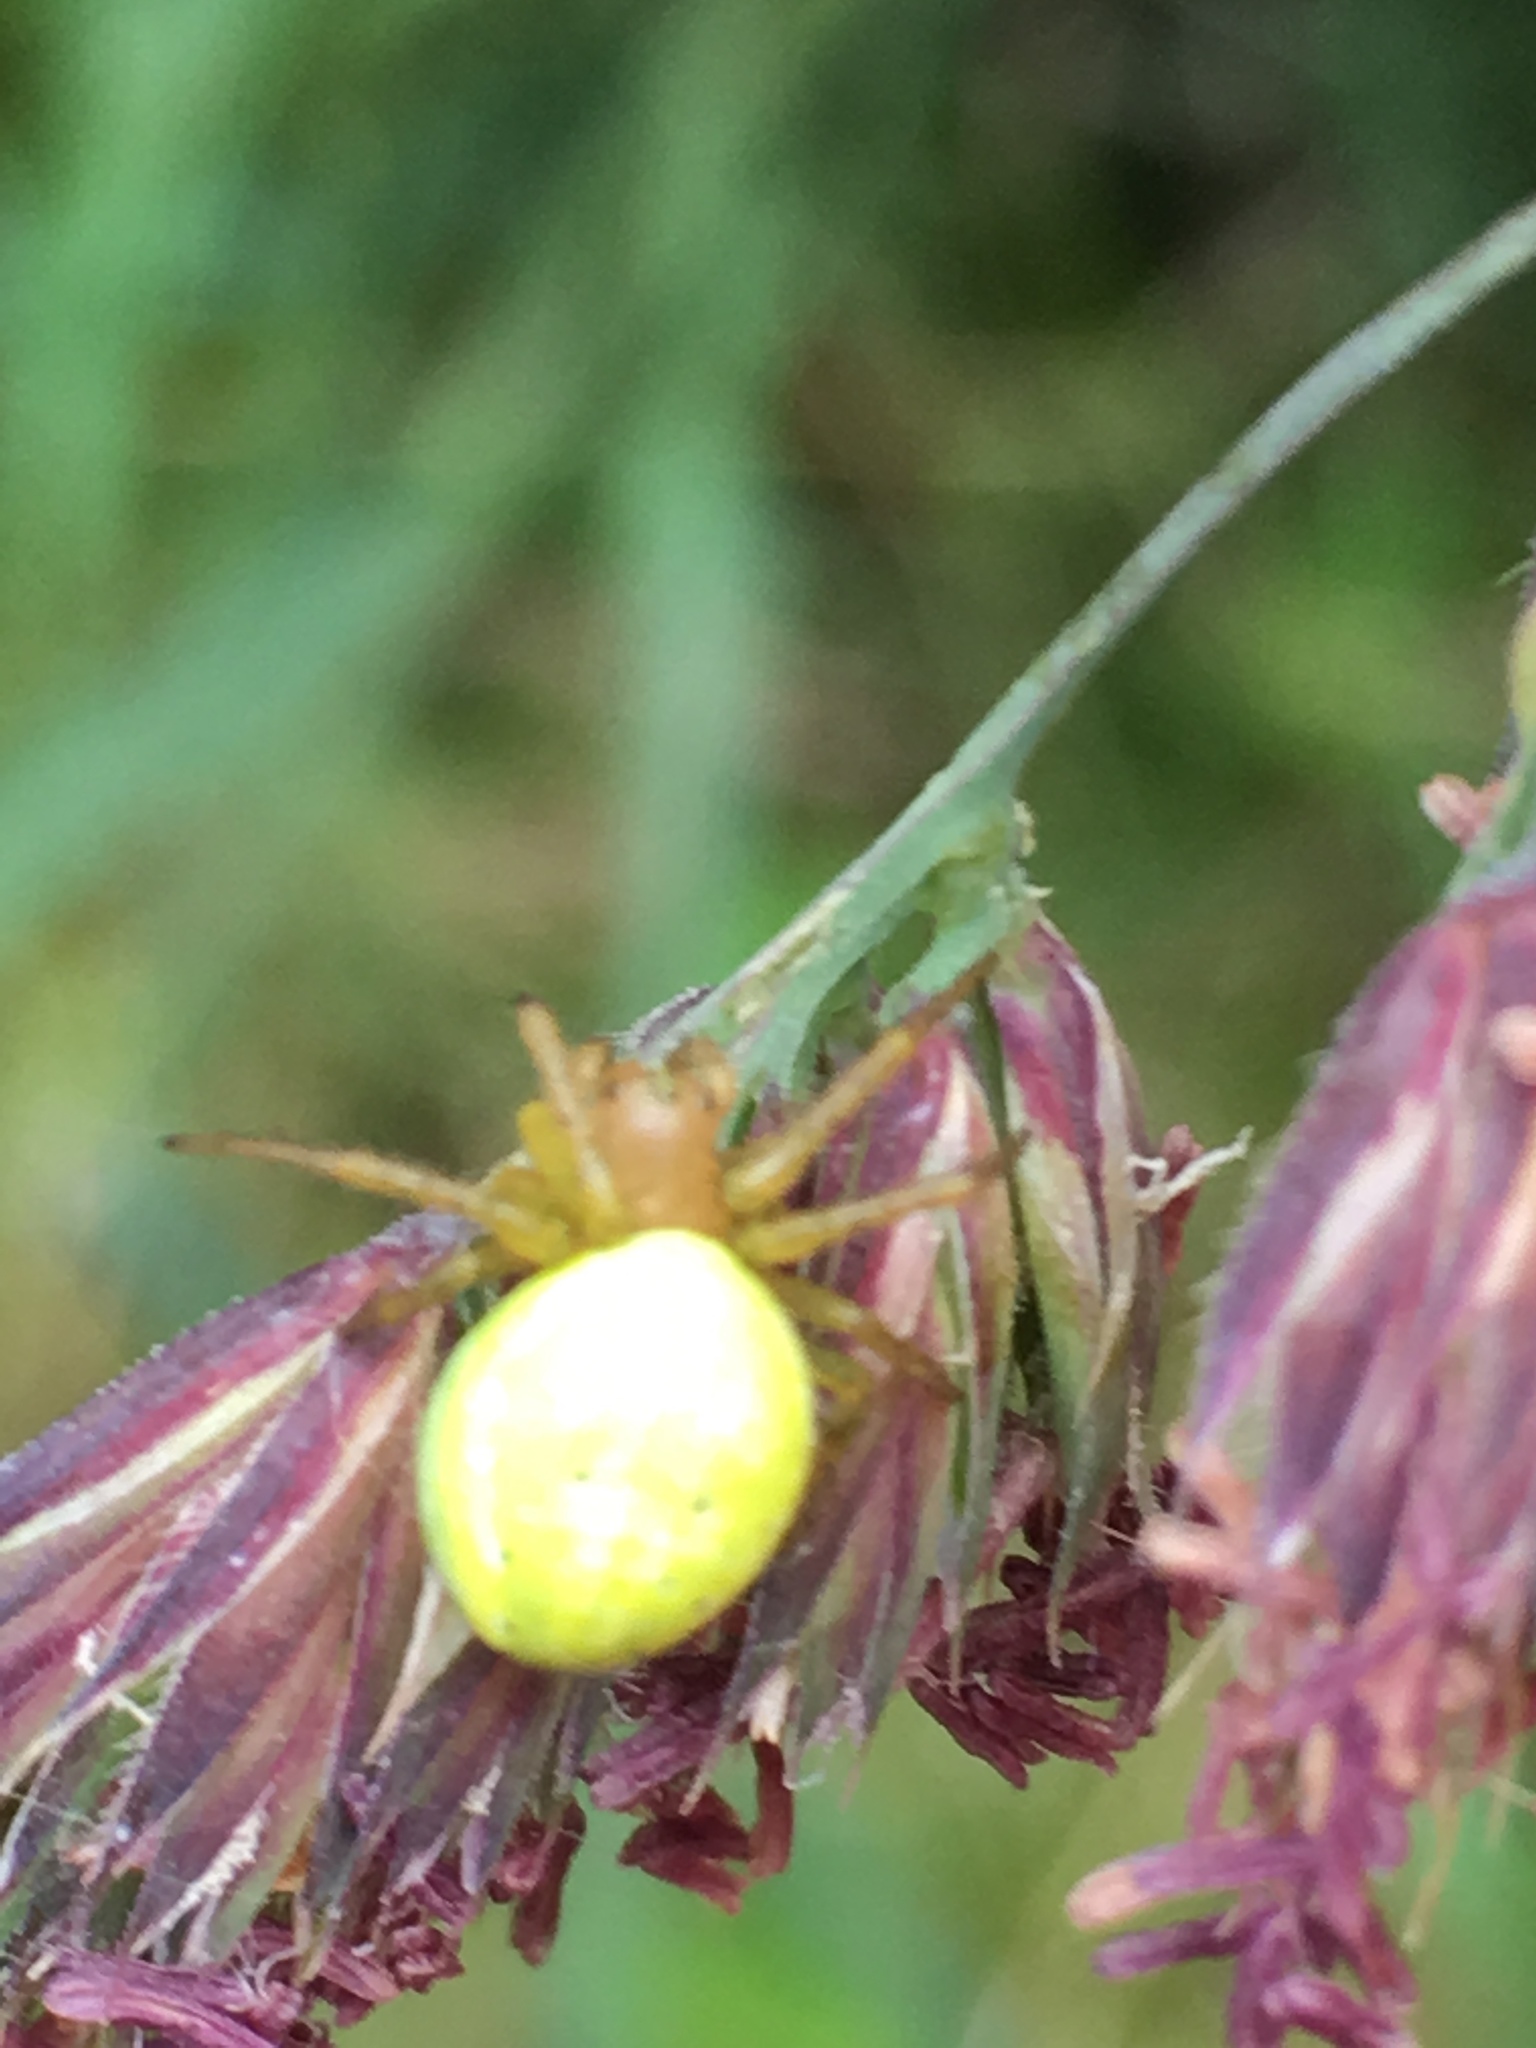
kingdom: Animalia
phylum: Arthropoda
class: Arachnida
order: Araneae
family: Araneidae
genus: Araniella
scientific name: Araniella
